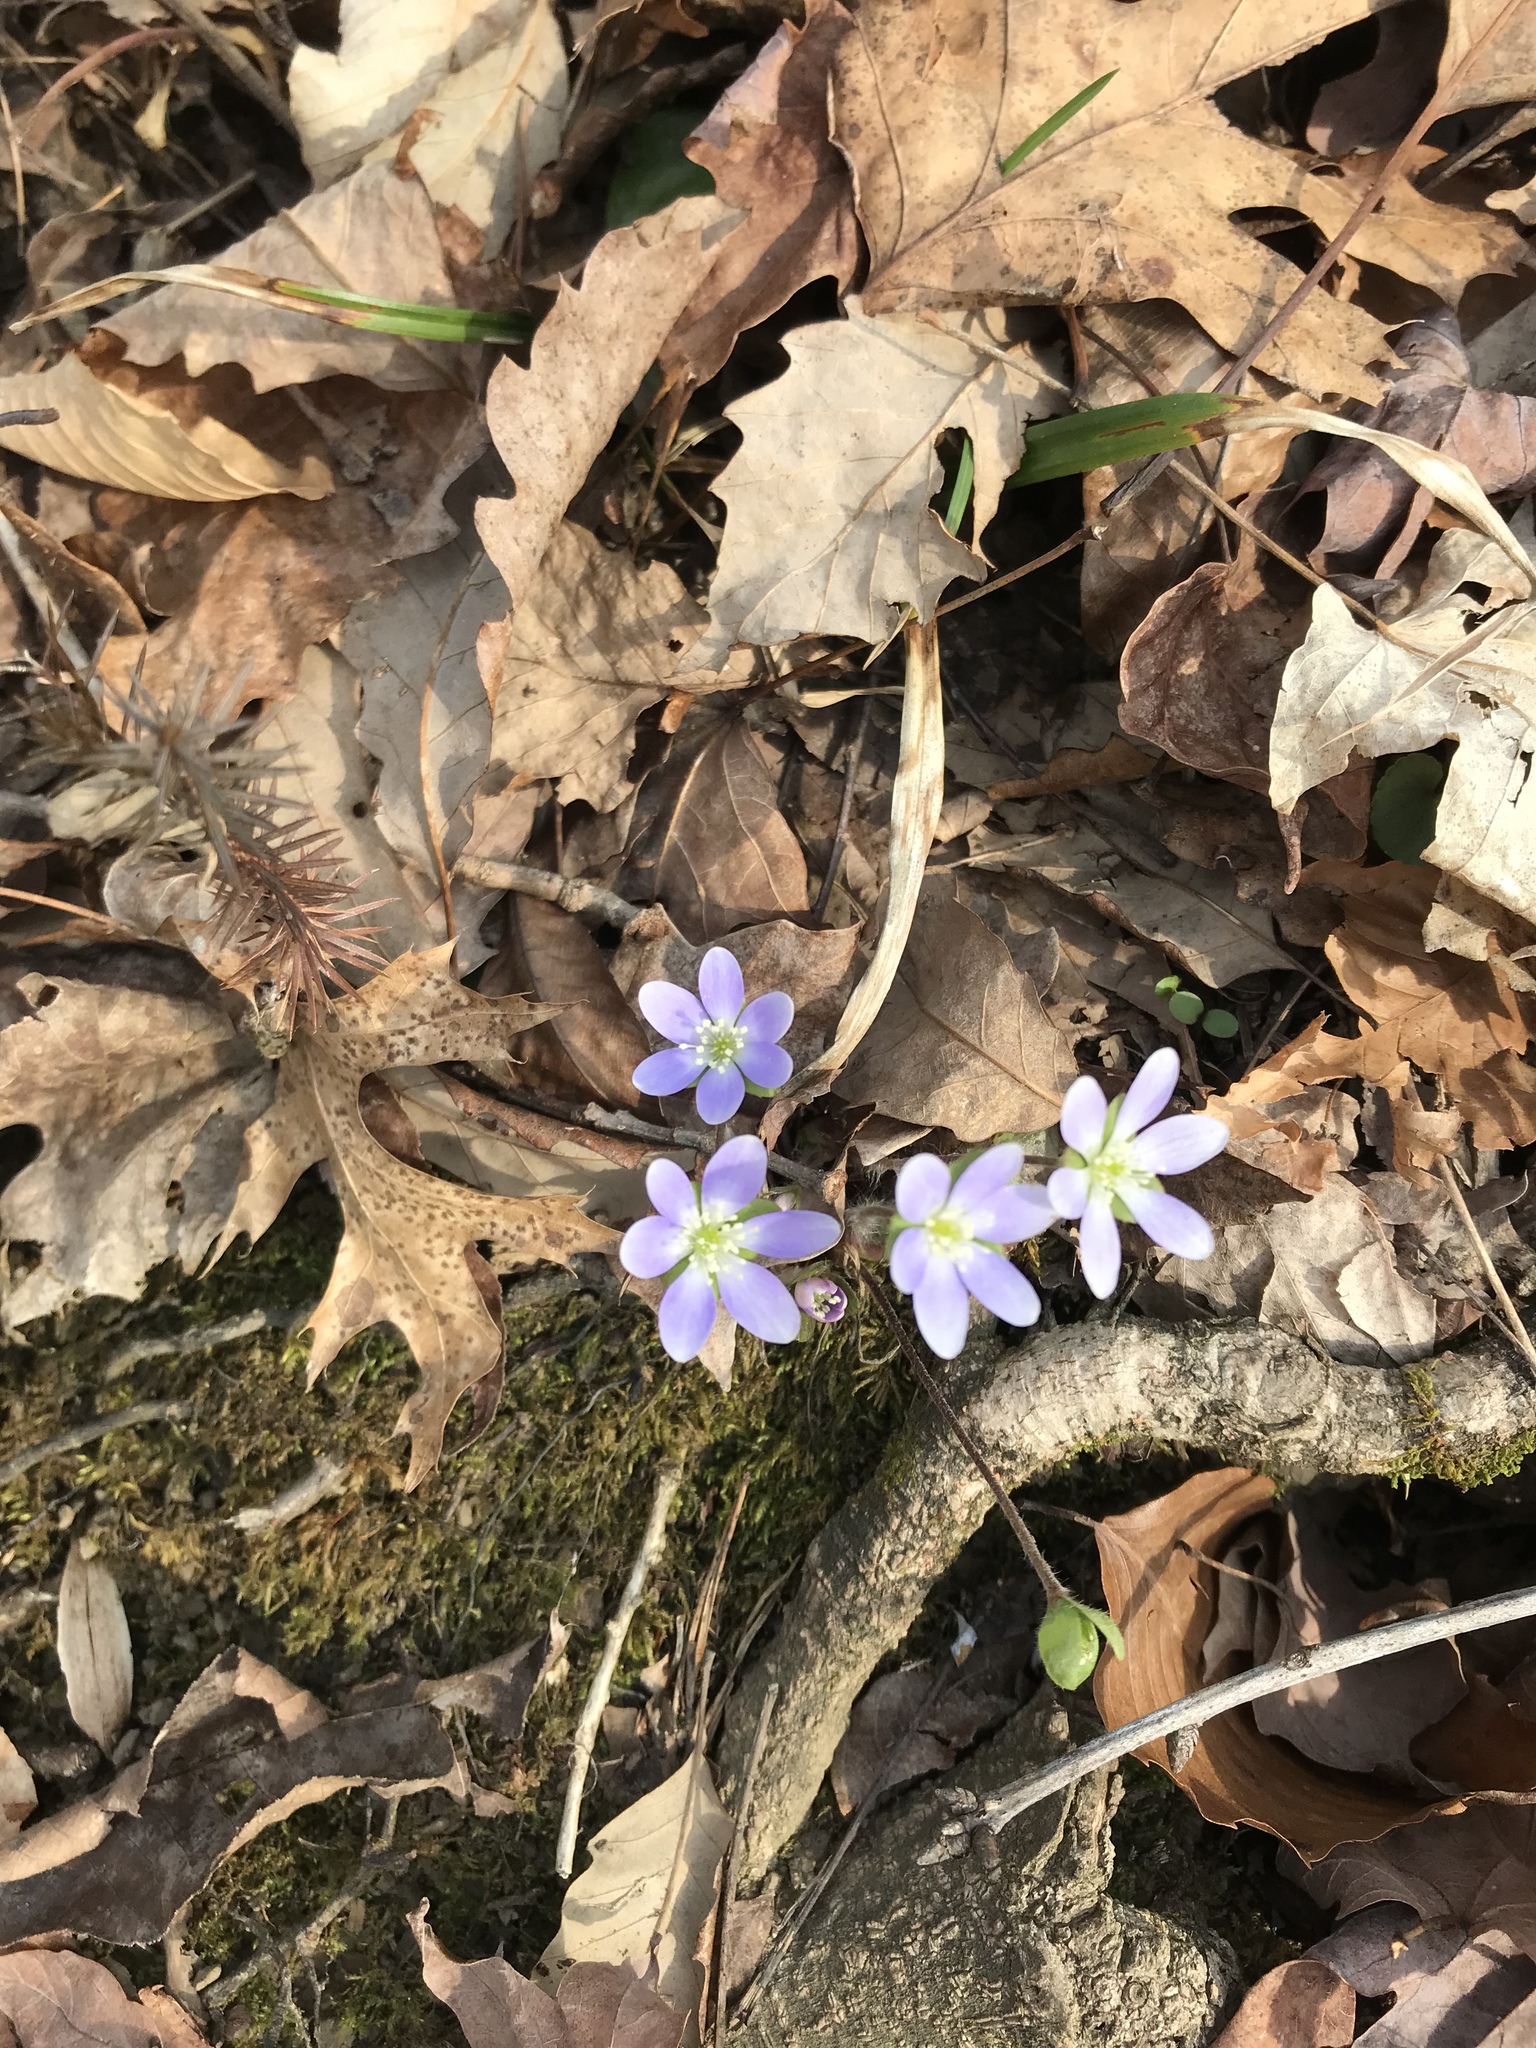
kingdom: Plantae
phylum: Tracheophyta
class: Magnoliopsida
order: Ranunculales
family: Ranunculaceae
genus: Hepatica
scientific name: Hepatica americana
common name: American hepatica
